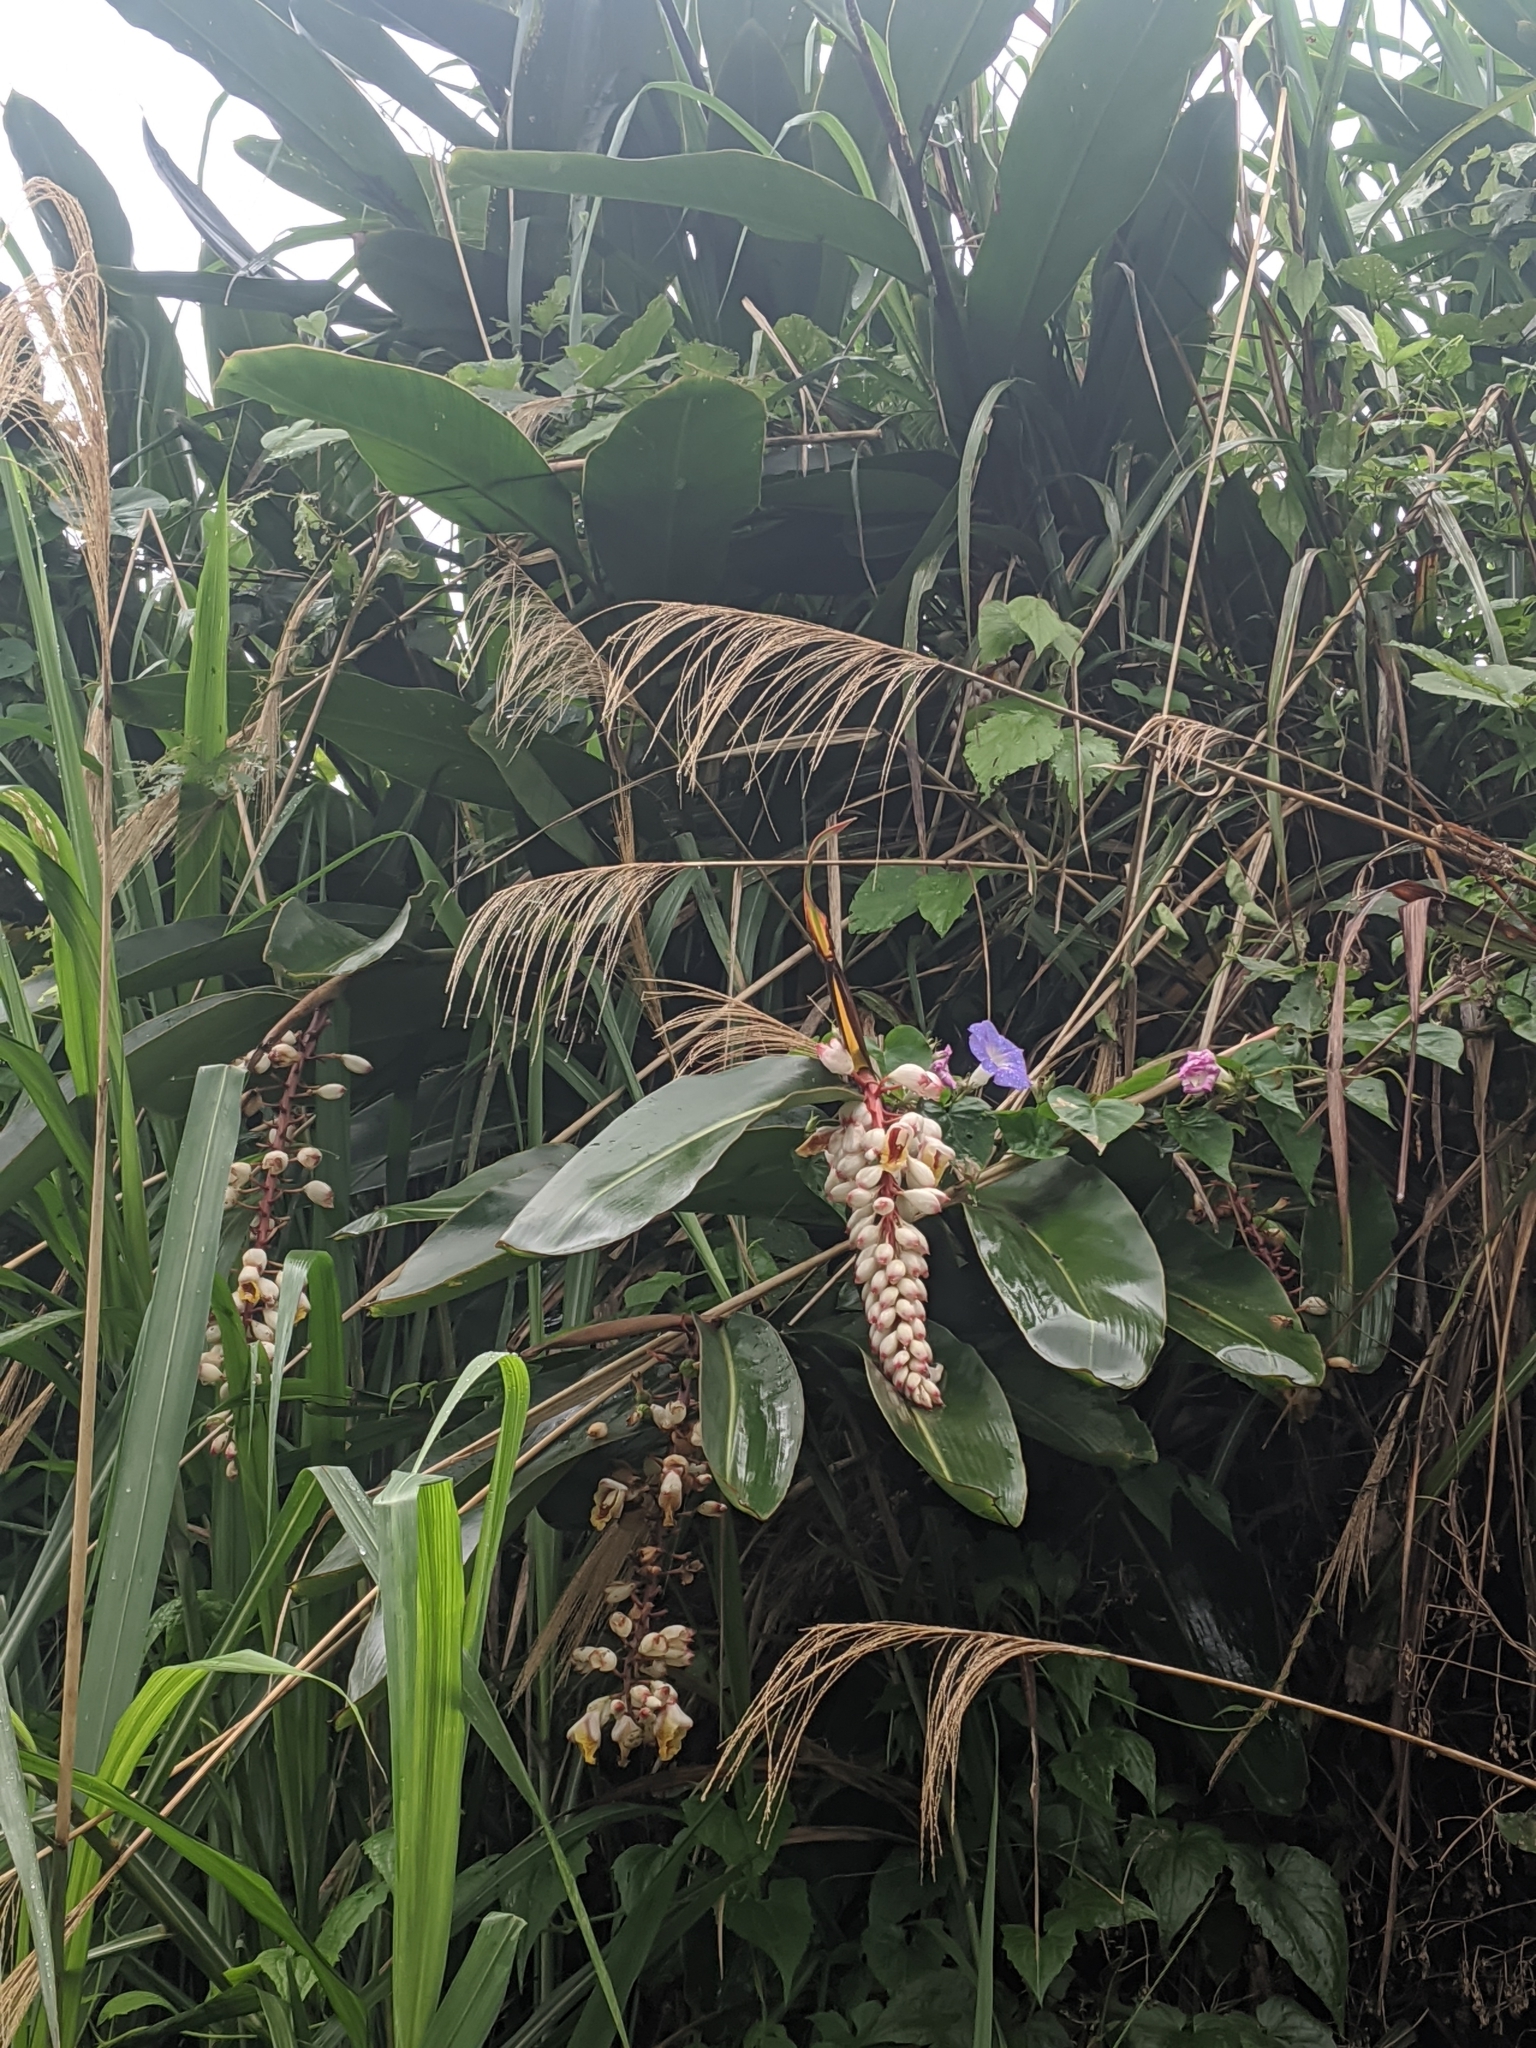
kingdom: Plantae
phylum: Tracheophyta
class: Liliopsida
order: Zingiberales
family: Zingiberaceae
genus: Alpinia
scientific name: Alpinia zerumbet
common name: Shellplant
